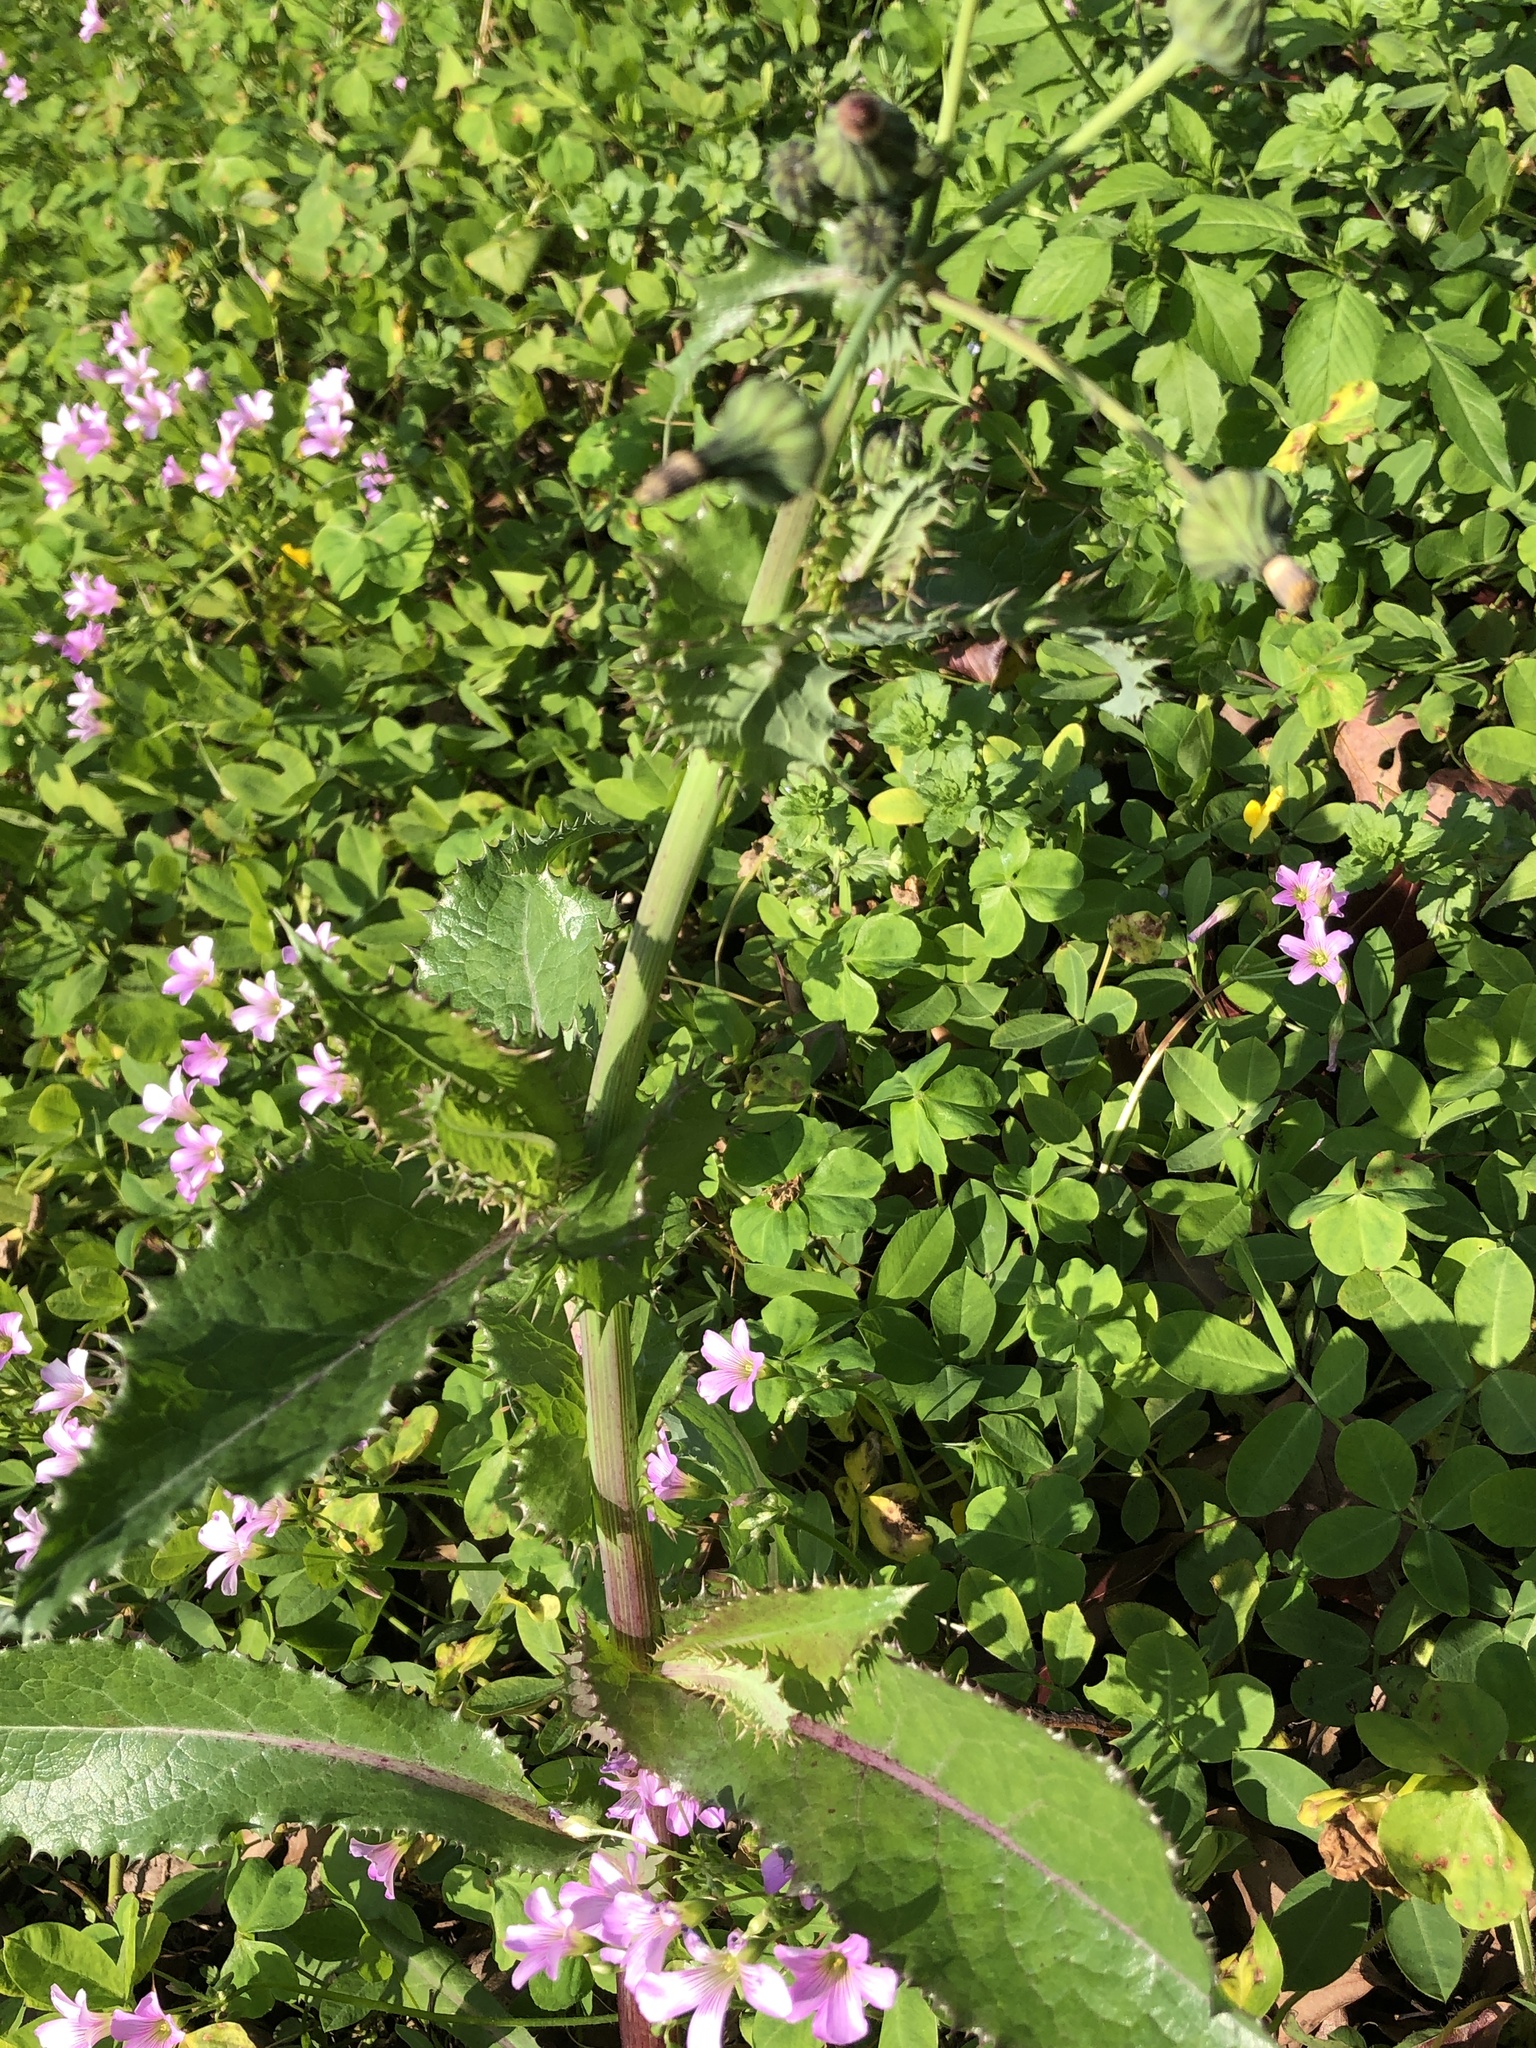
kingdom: Plantae
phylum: Tracheophyta
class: Magnoliopsida
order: Asterales
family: Asteraceae
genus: Sonchus
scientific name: Sonchus asper
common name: Prickly sow-thistle
